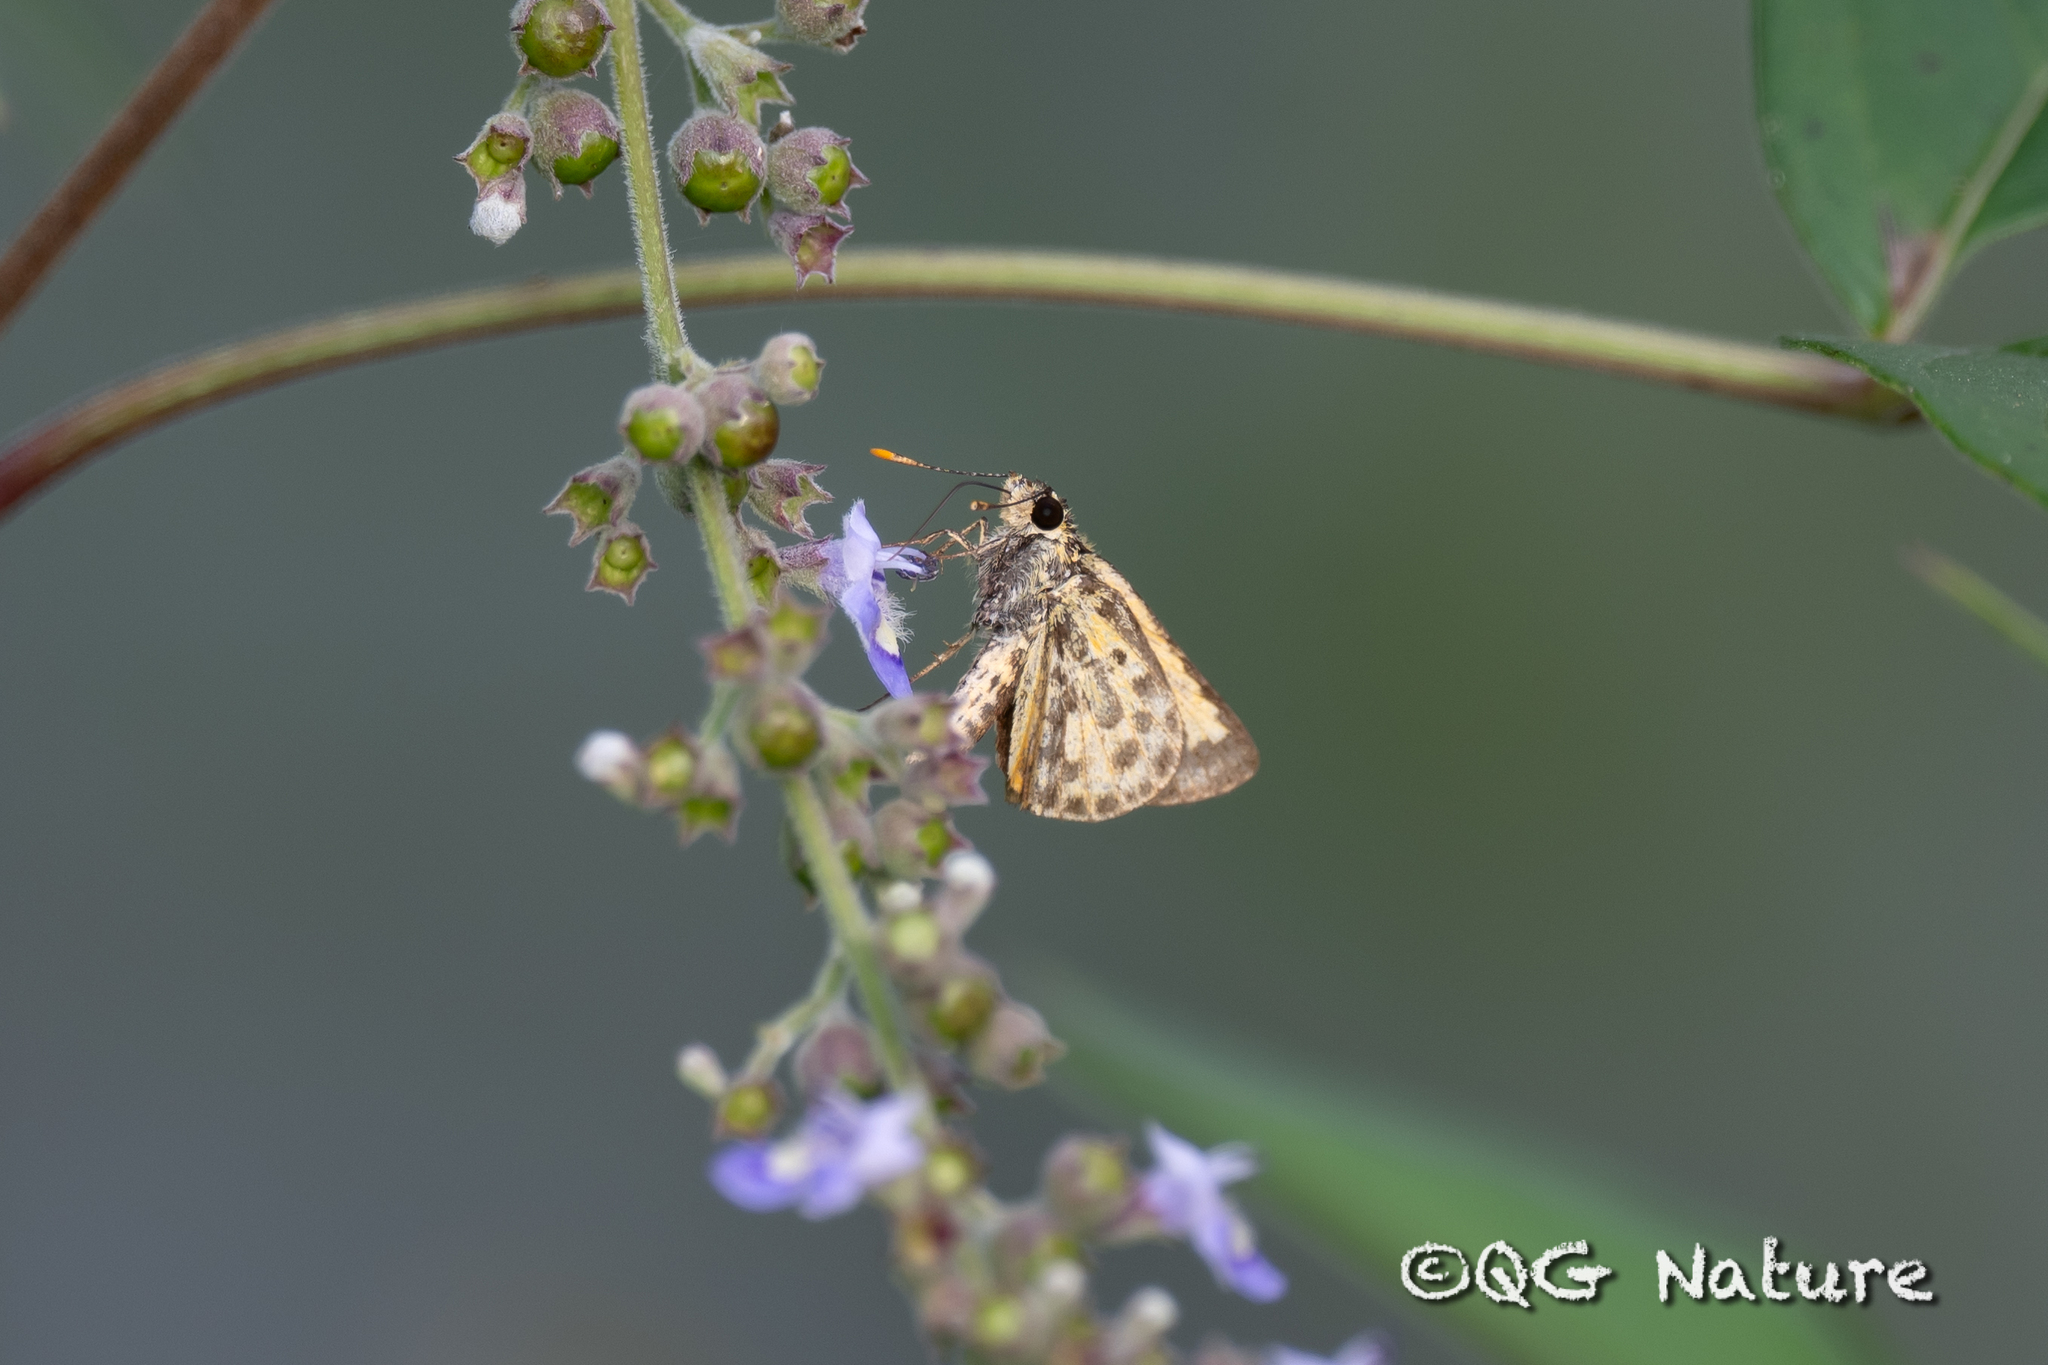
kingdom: Animalia
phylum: Arthropoda
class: Insecta
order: Lepidoptera
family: Hesperiidae
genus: Ampittia
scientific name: Ampittia dioscorides
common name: Common bush hopper
